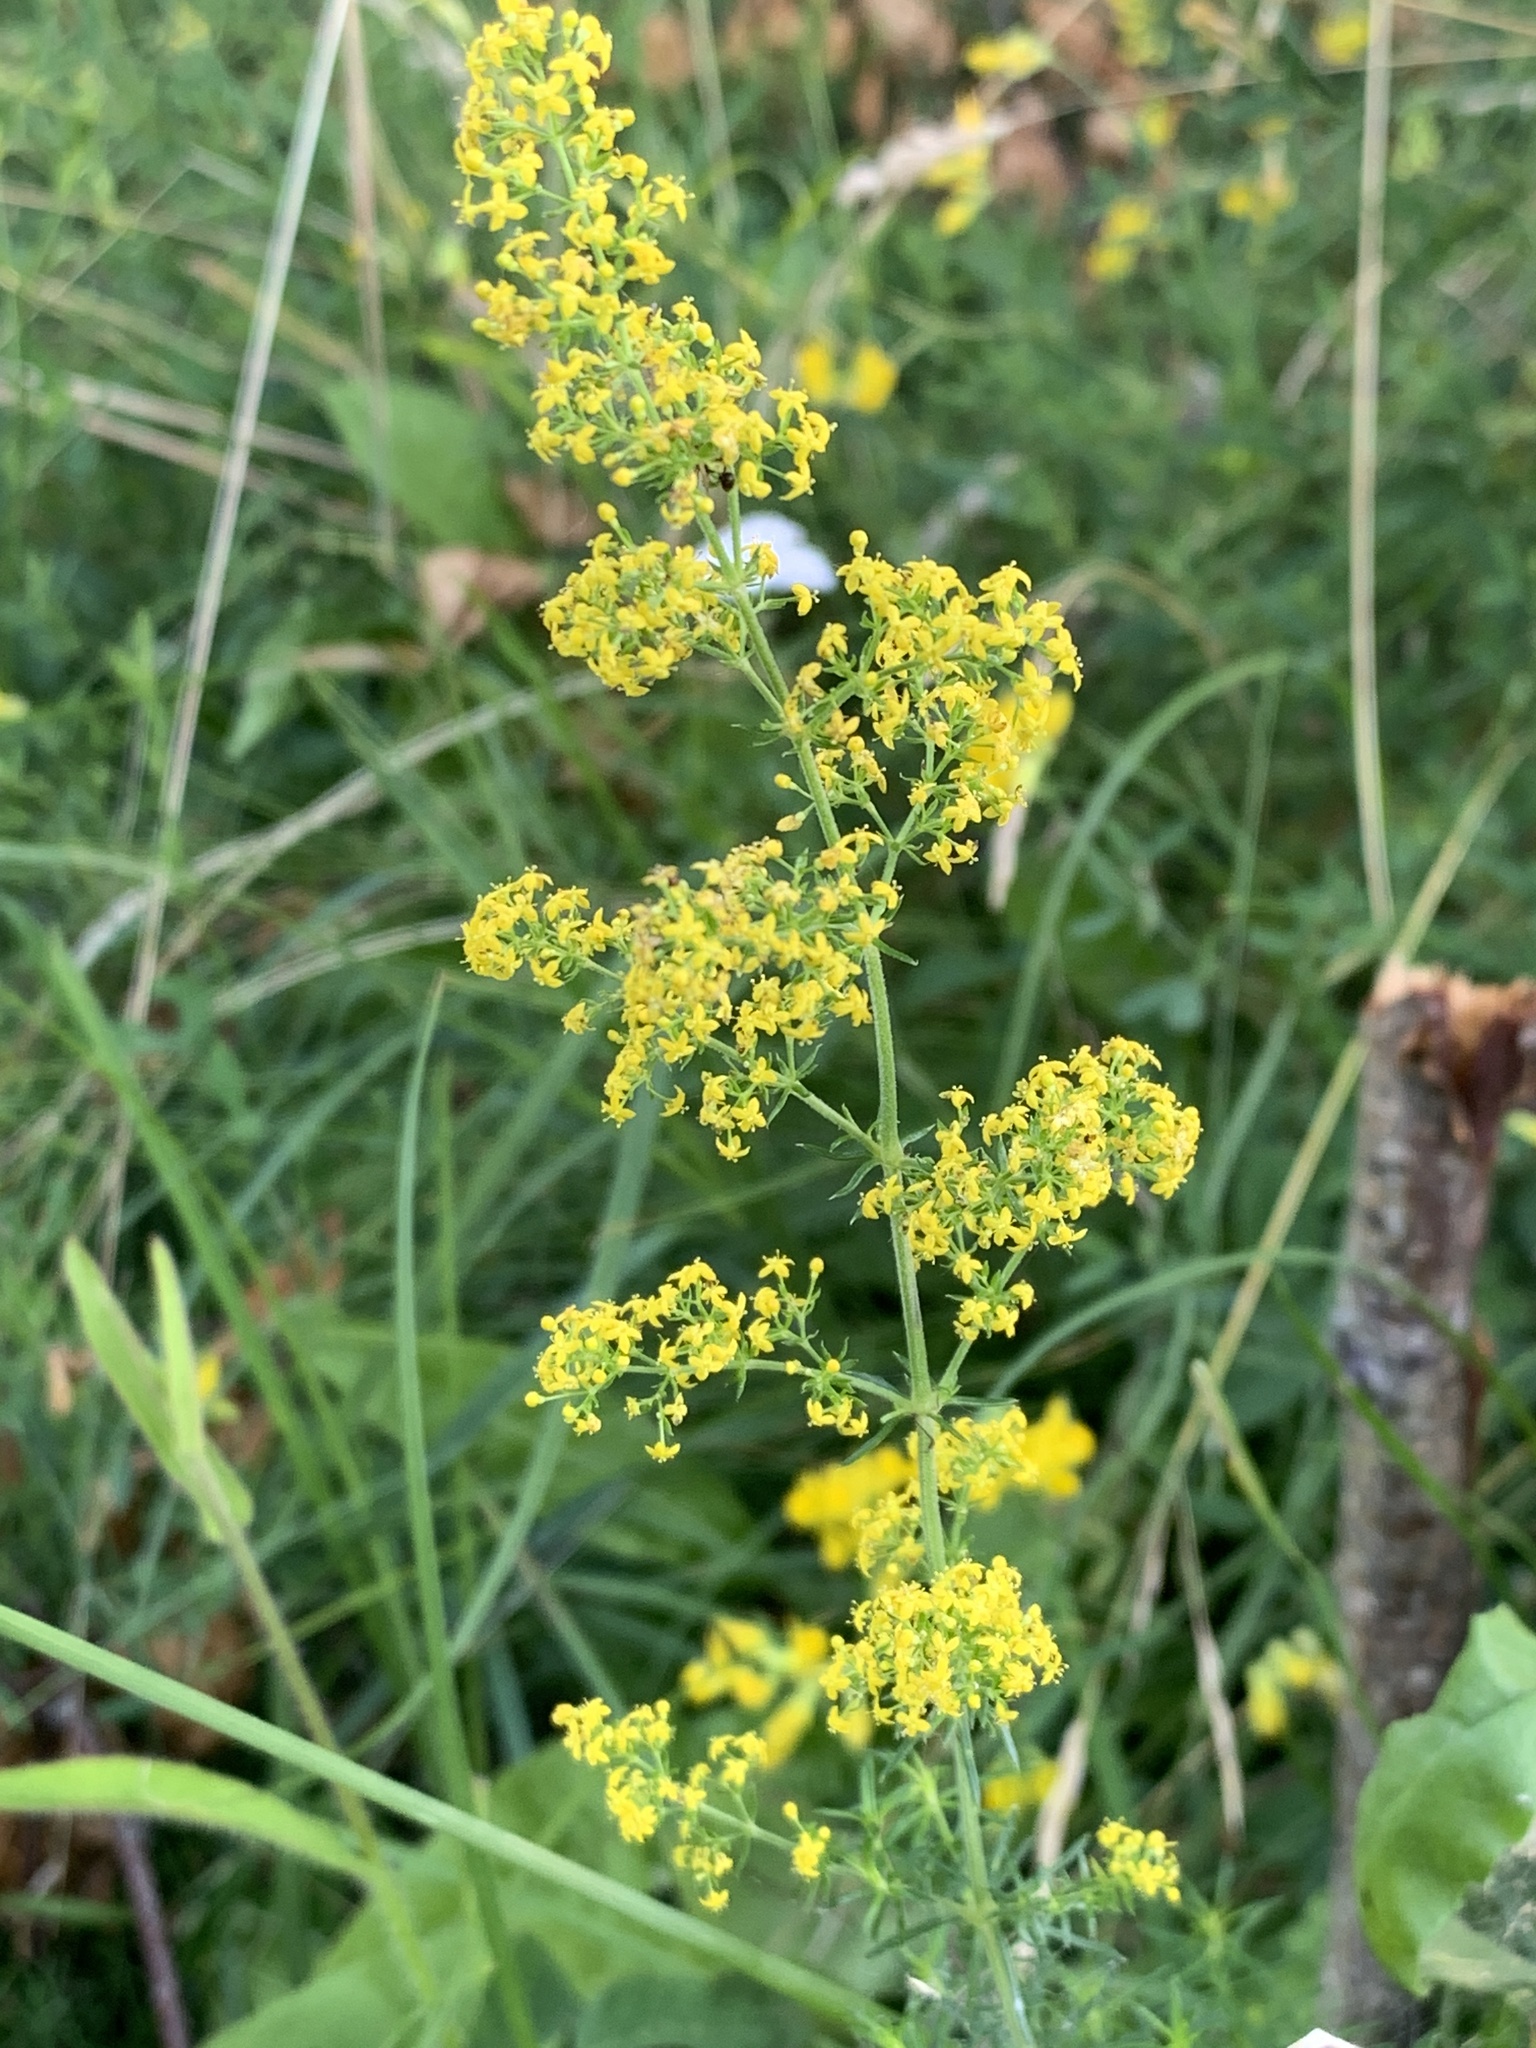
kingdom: Plantae
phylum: Tracheophyta
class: Magnoliopsida
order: Gentianales
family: Rubiaceae
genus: Galium
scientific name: Galium verum
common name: Lady's bedstraw
